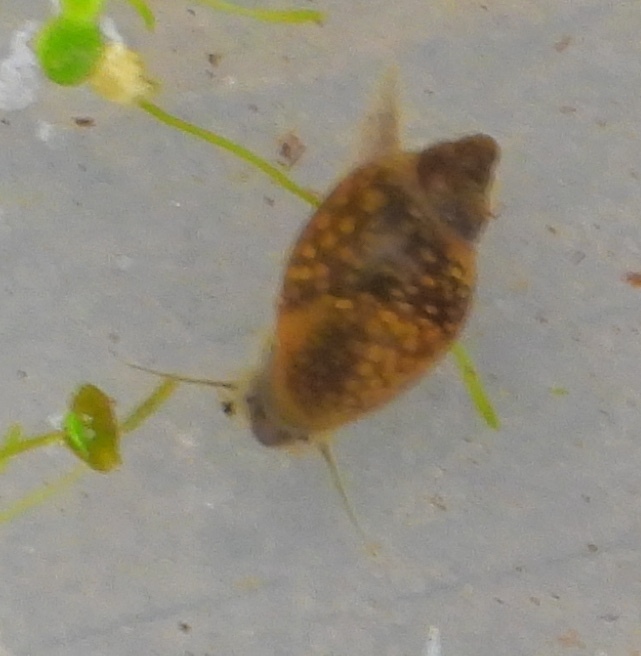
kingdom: Animalia
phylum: Mollusca
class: Gastropoda
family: Physidae
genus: Physella
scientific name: Physella acuta
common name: European physa
